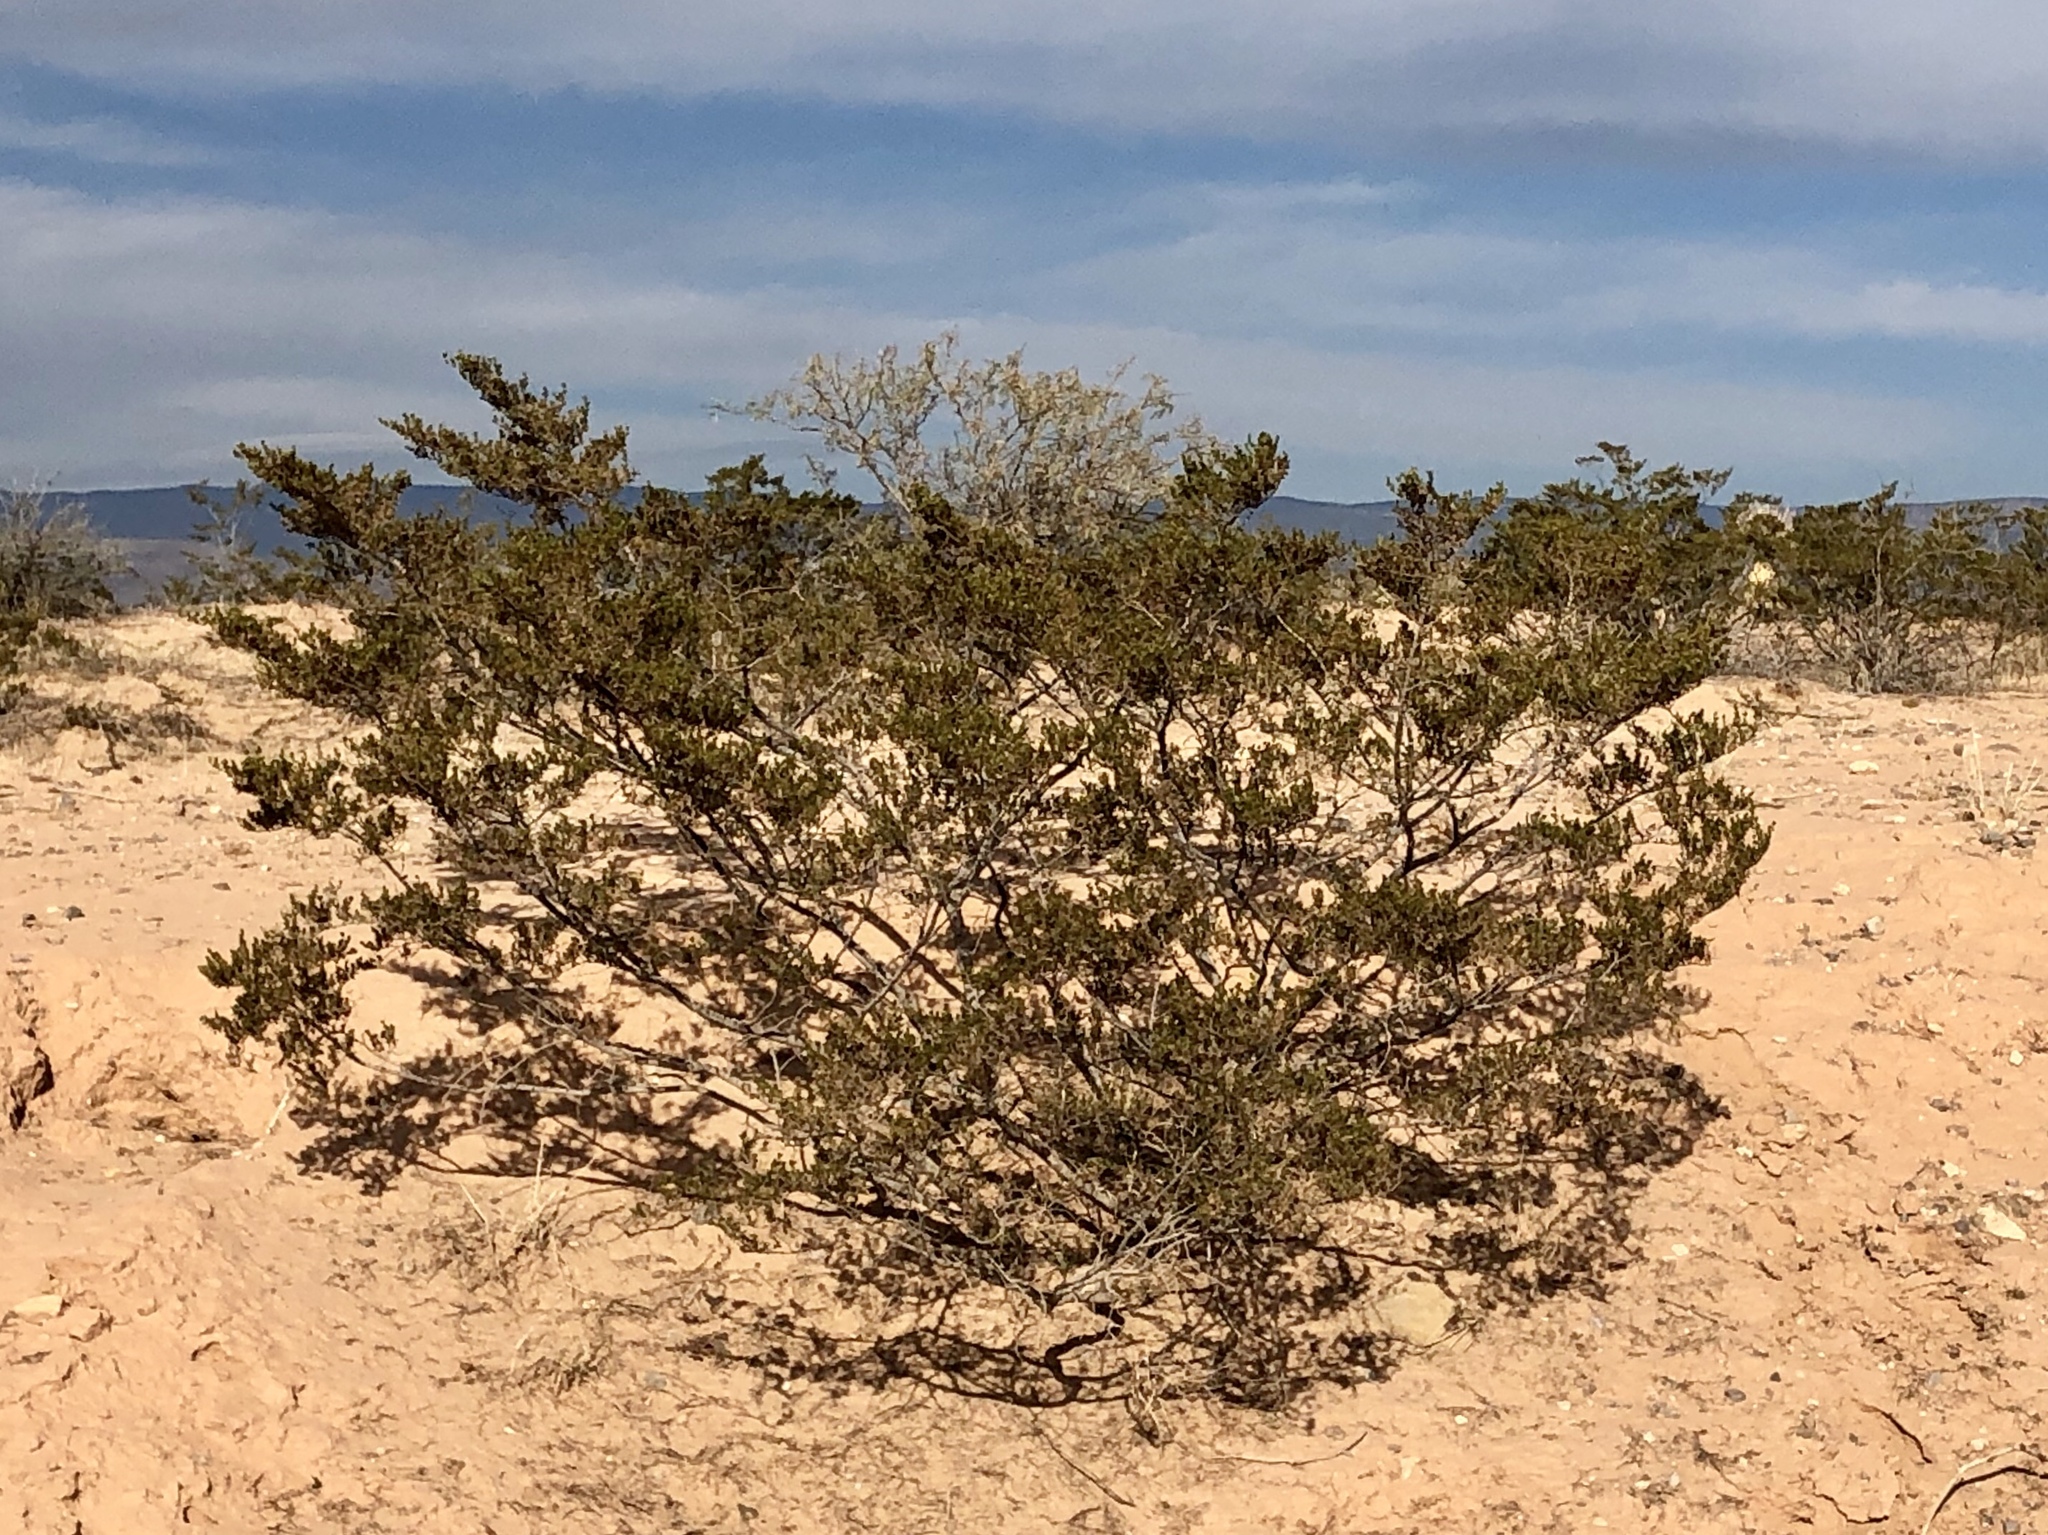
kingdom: Plantae
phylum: Tracheophyta
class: Magnoliopsida
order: Zygophyllales
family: Zygophyllaceae
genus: Larrea
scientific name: Larrea tridentata
